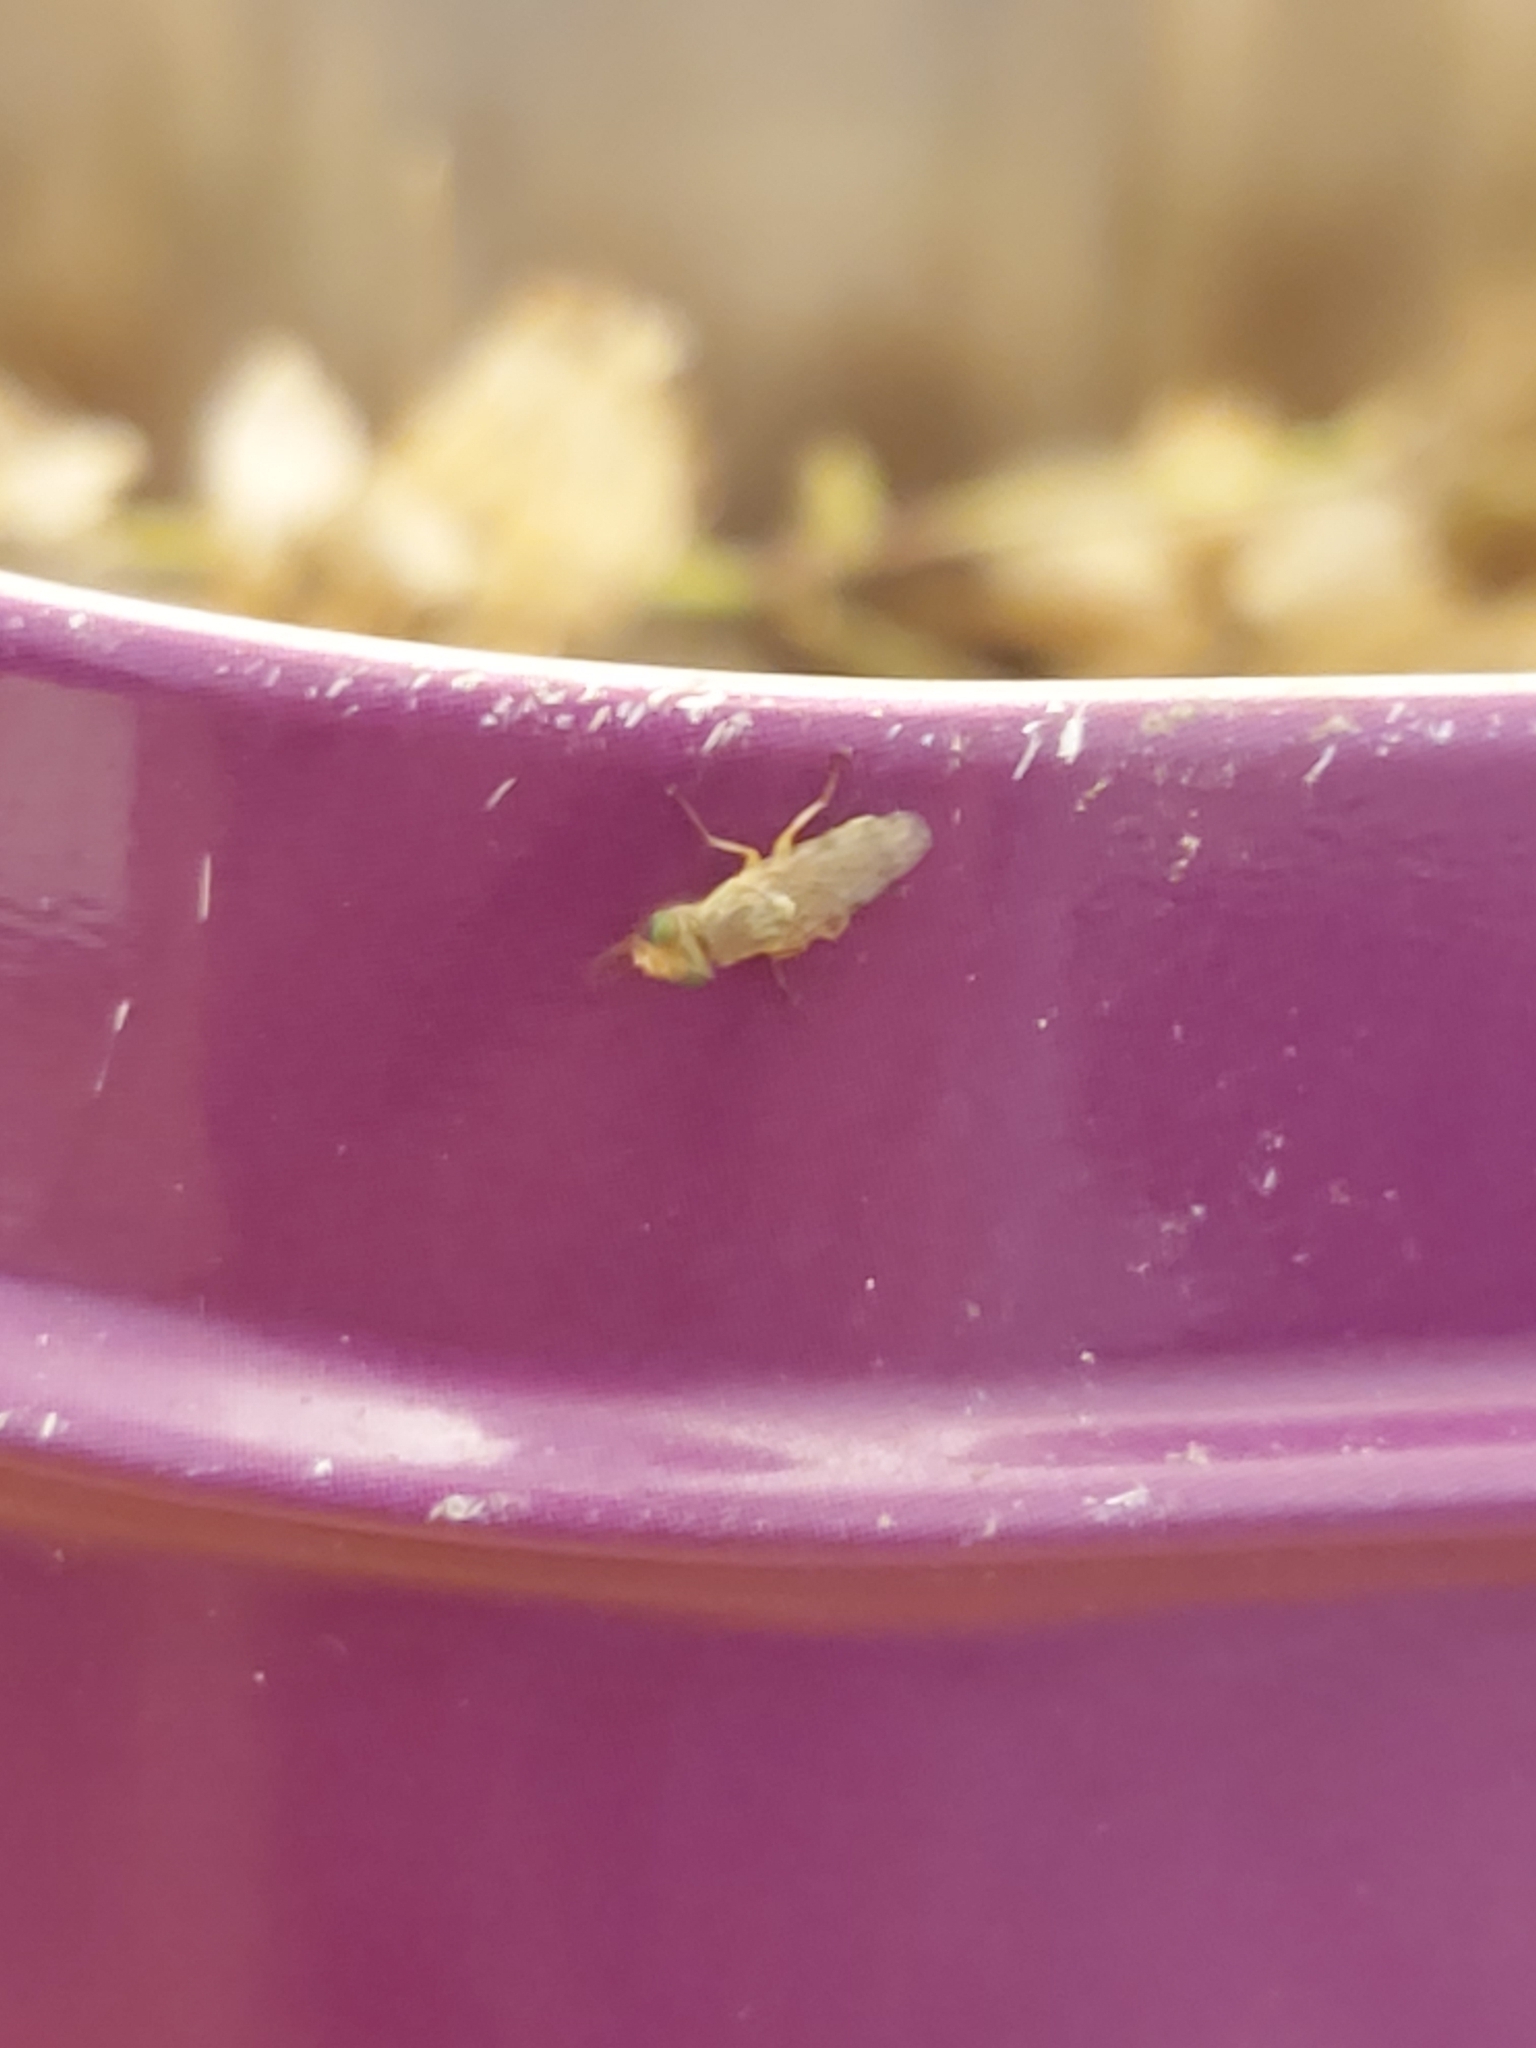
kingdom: Animalia
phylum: Arthropoda
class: Insecta
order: Diptera
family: Tephritidae
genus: Ensina
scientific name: Ensina sonchi
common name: Sonchus fly
